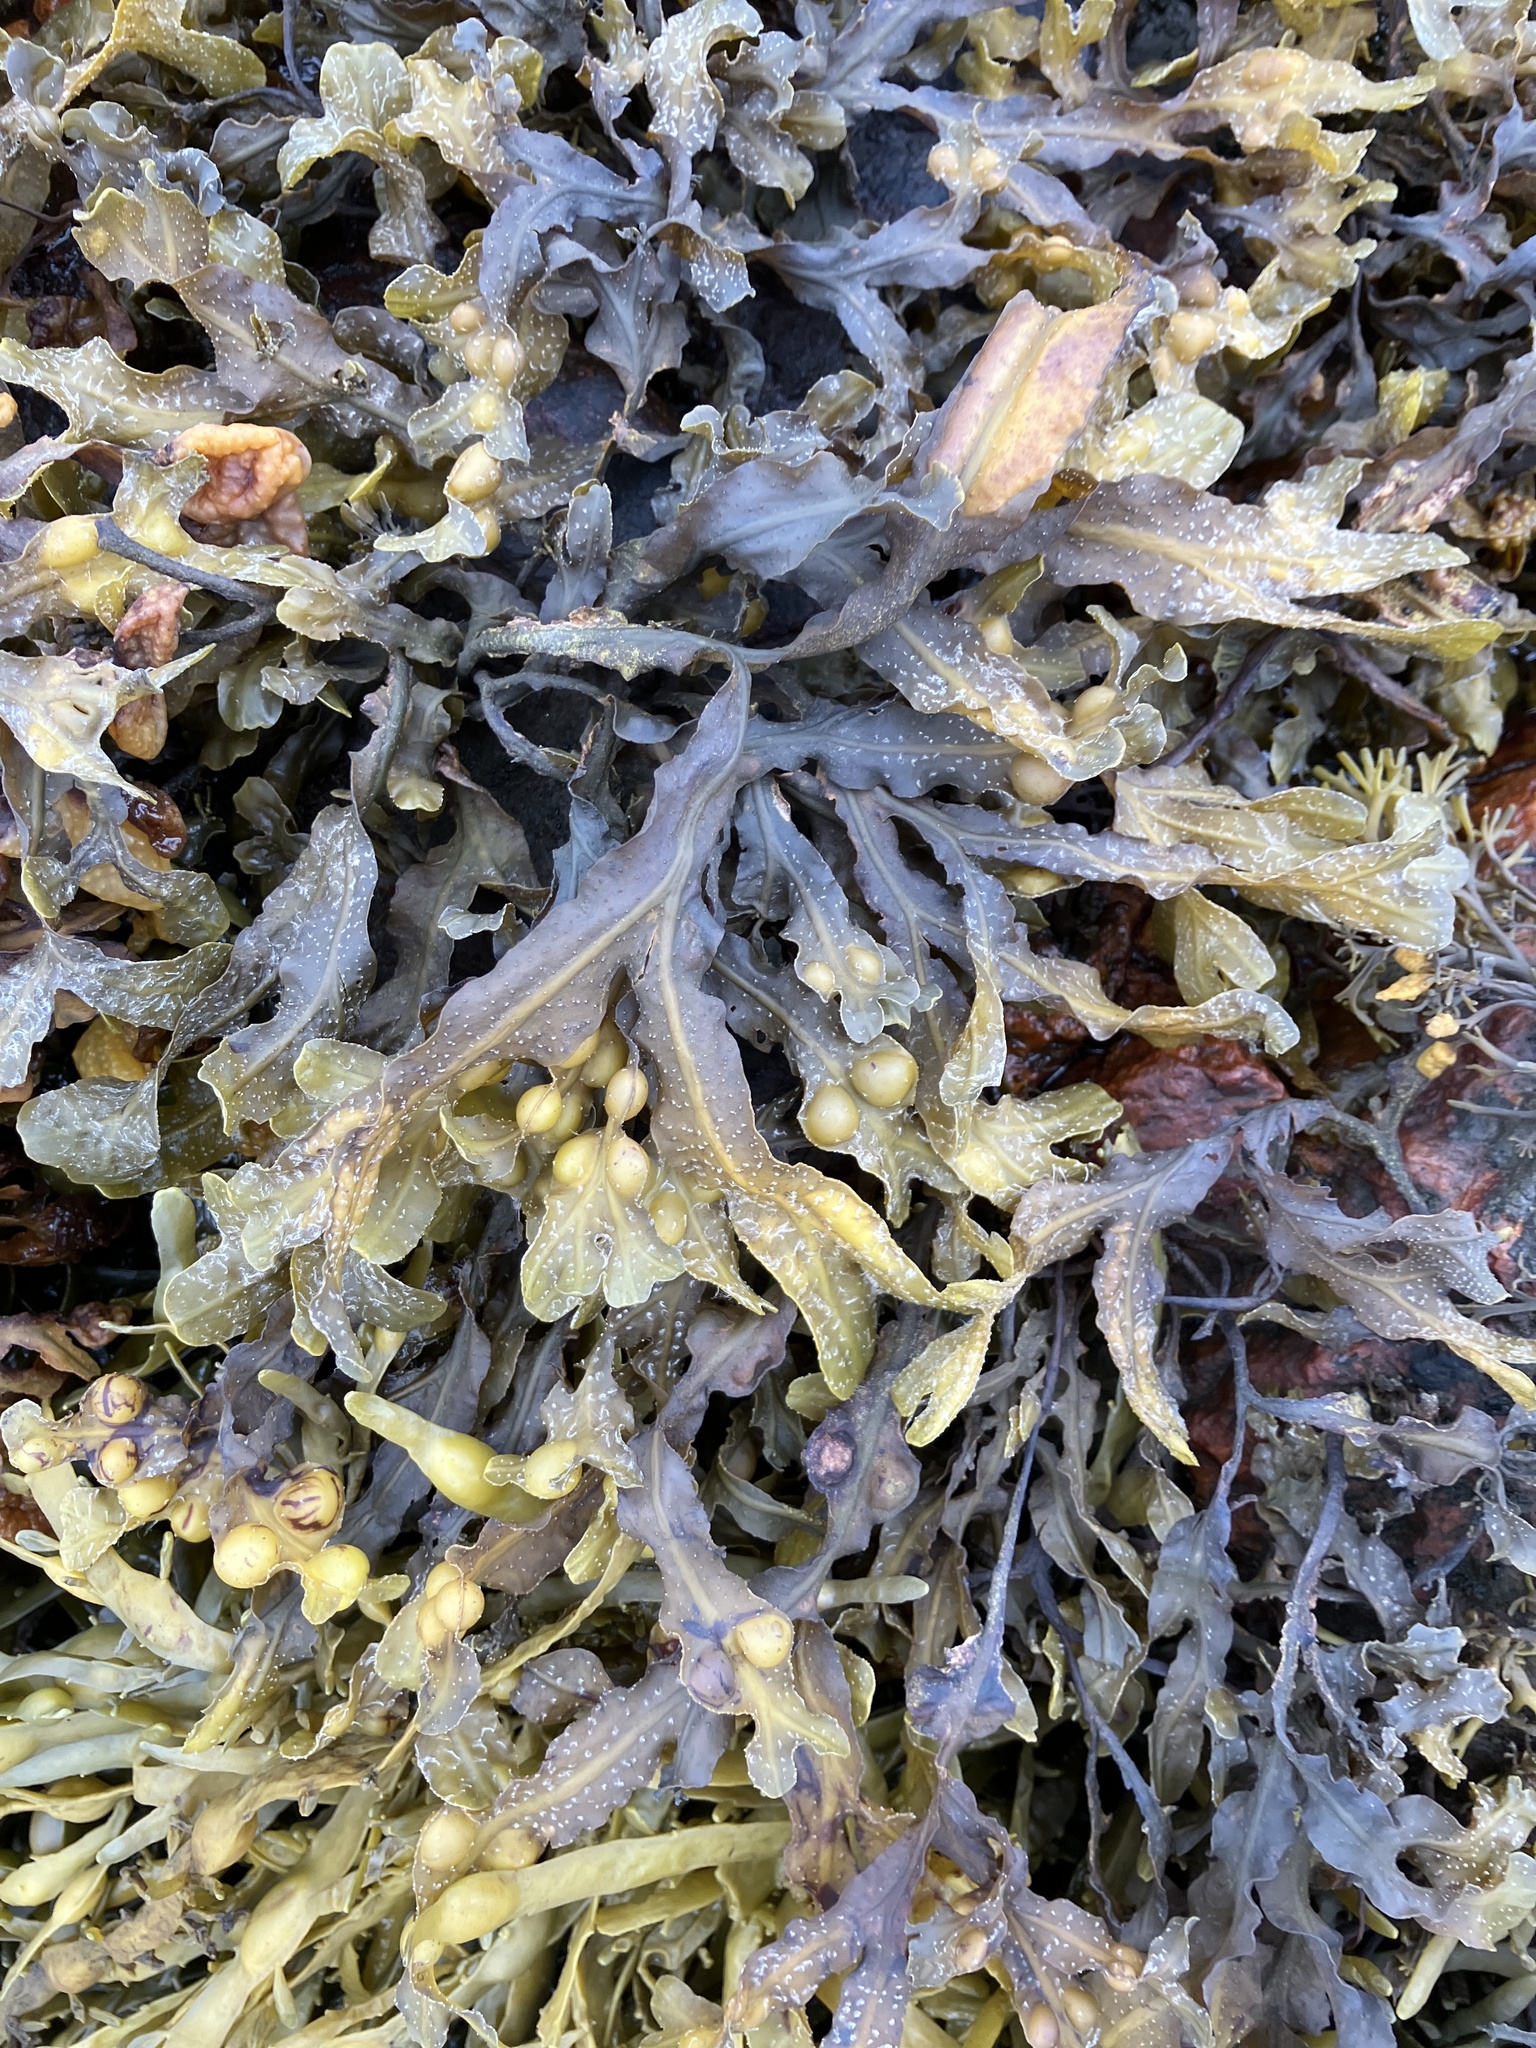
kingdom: Chromista
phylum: Ochrophyta
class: Phaeophyceae
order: Fucales
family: Fucaceae
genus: Fucus
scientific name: Fucus vesiculosus
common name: Bladder wrack
